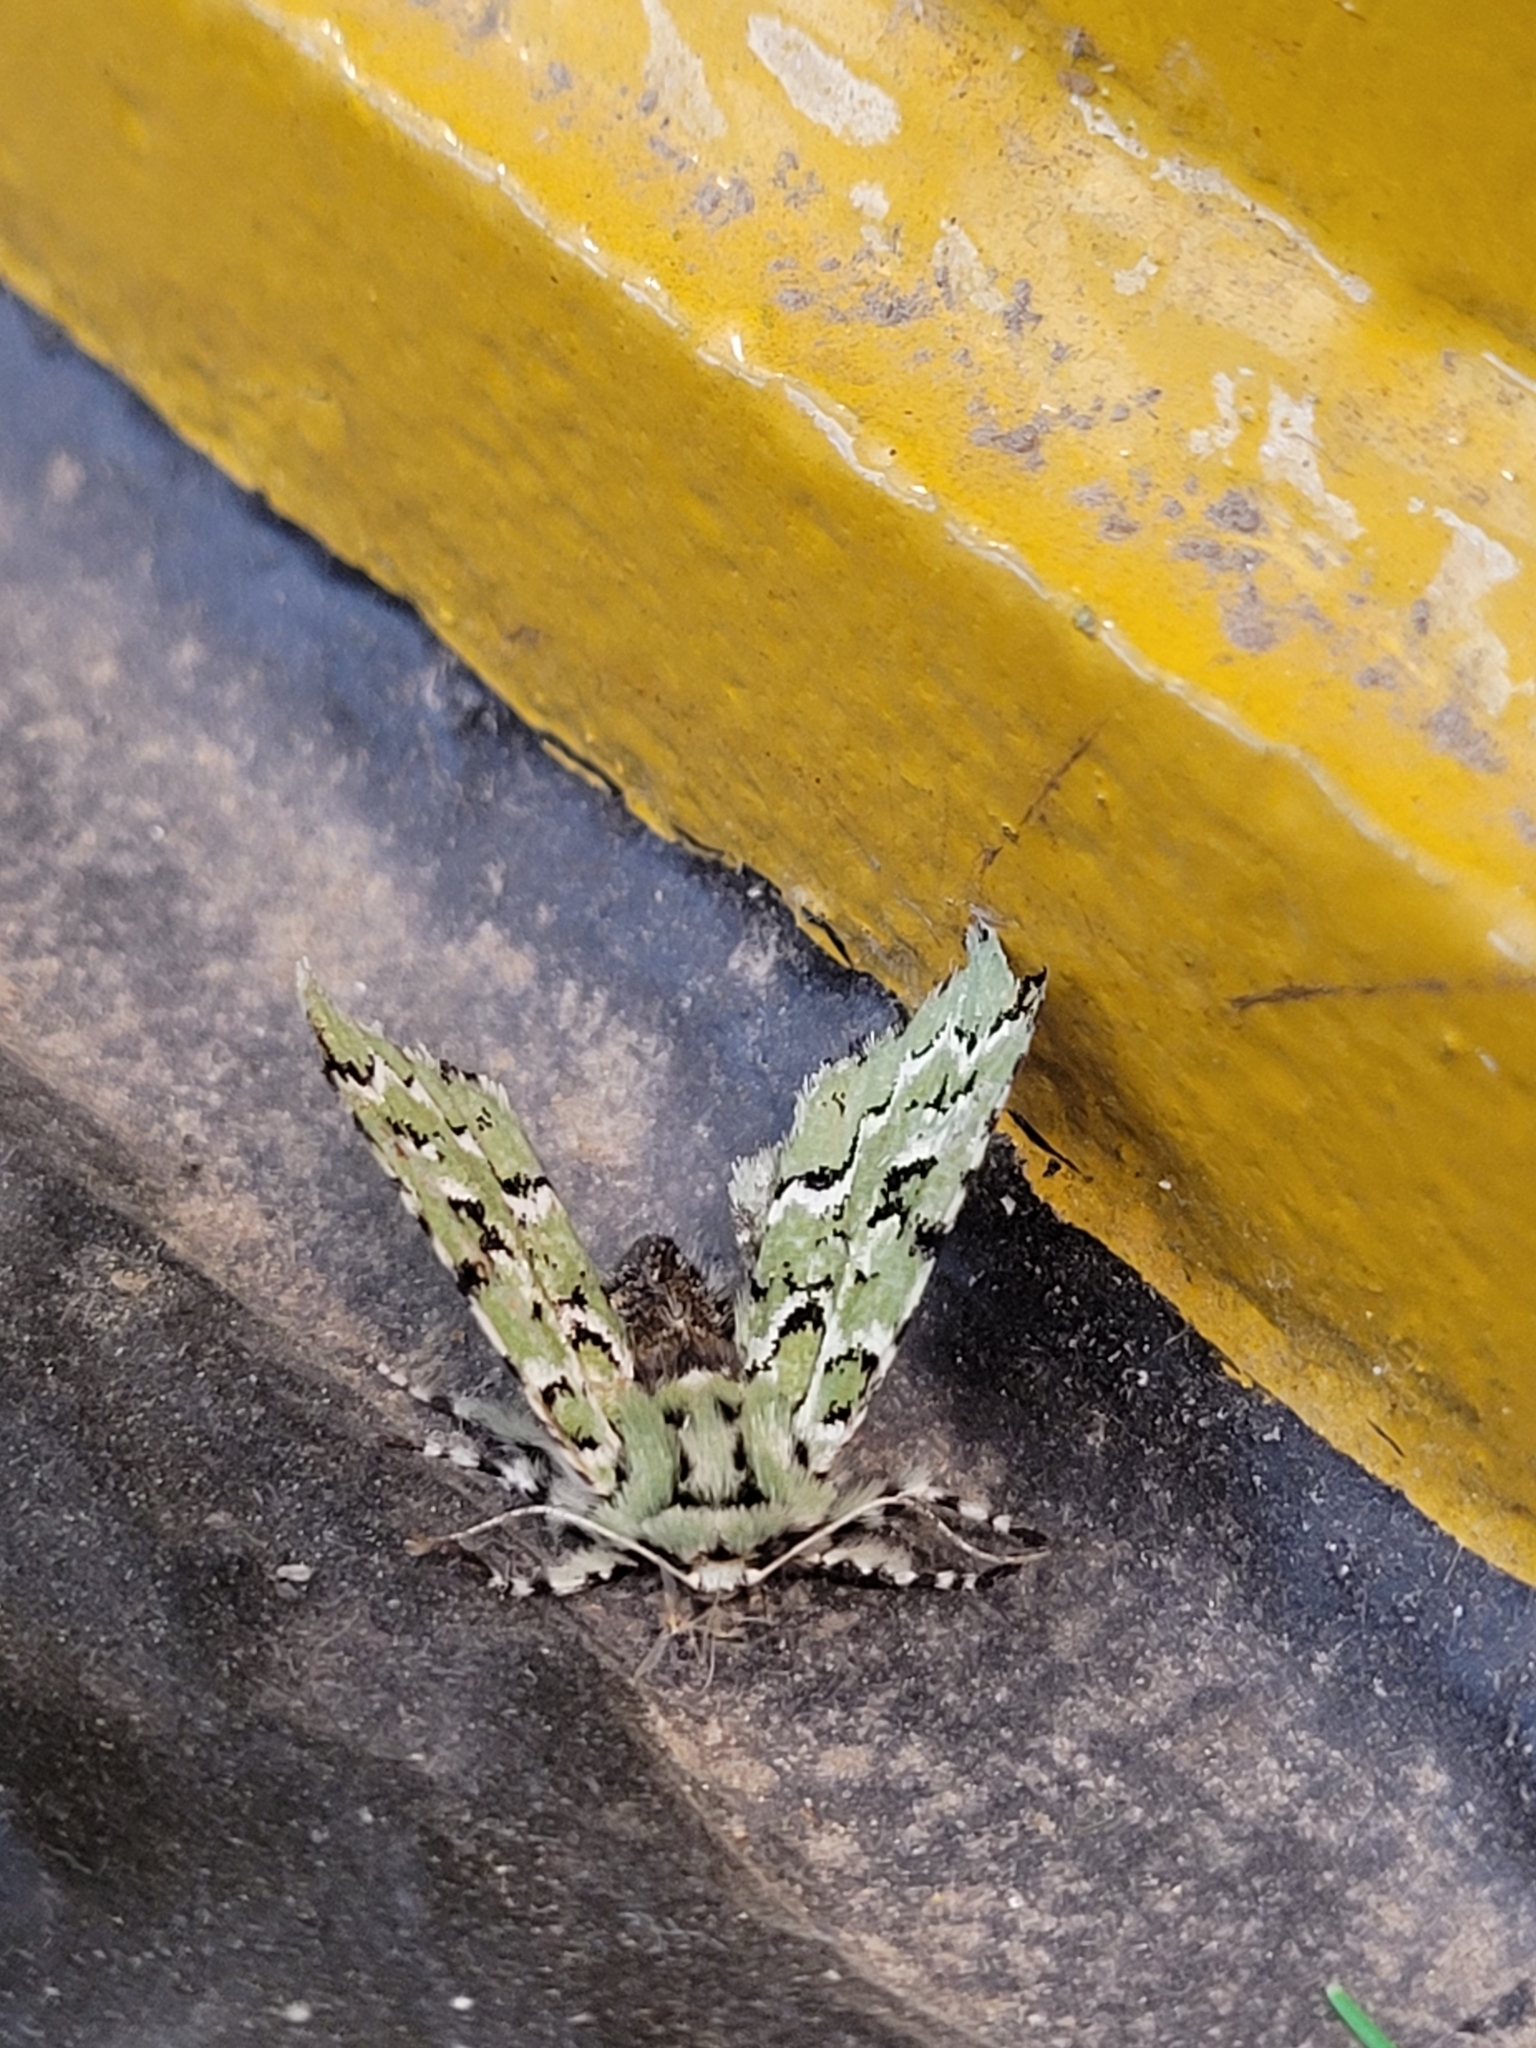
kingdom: Animalia
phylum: Arthropoda
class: Insecta
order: Lepidoptera
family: Noctuidae
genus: Feralia
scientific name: Feralia deceptiva
